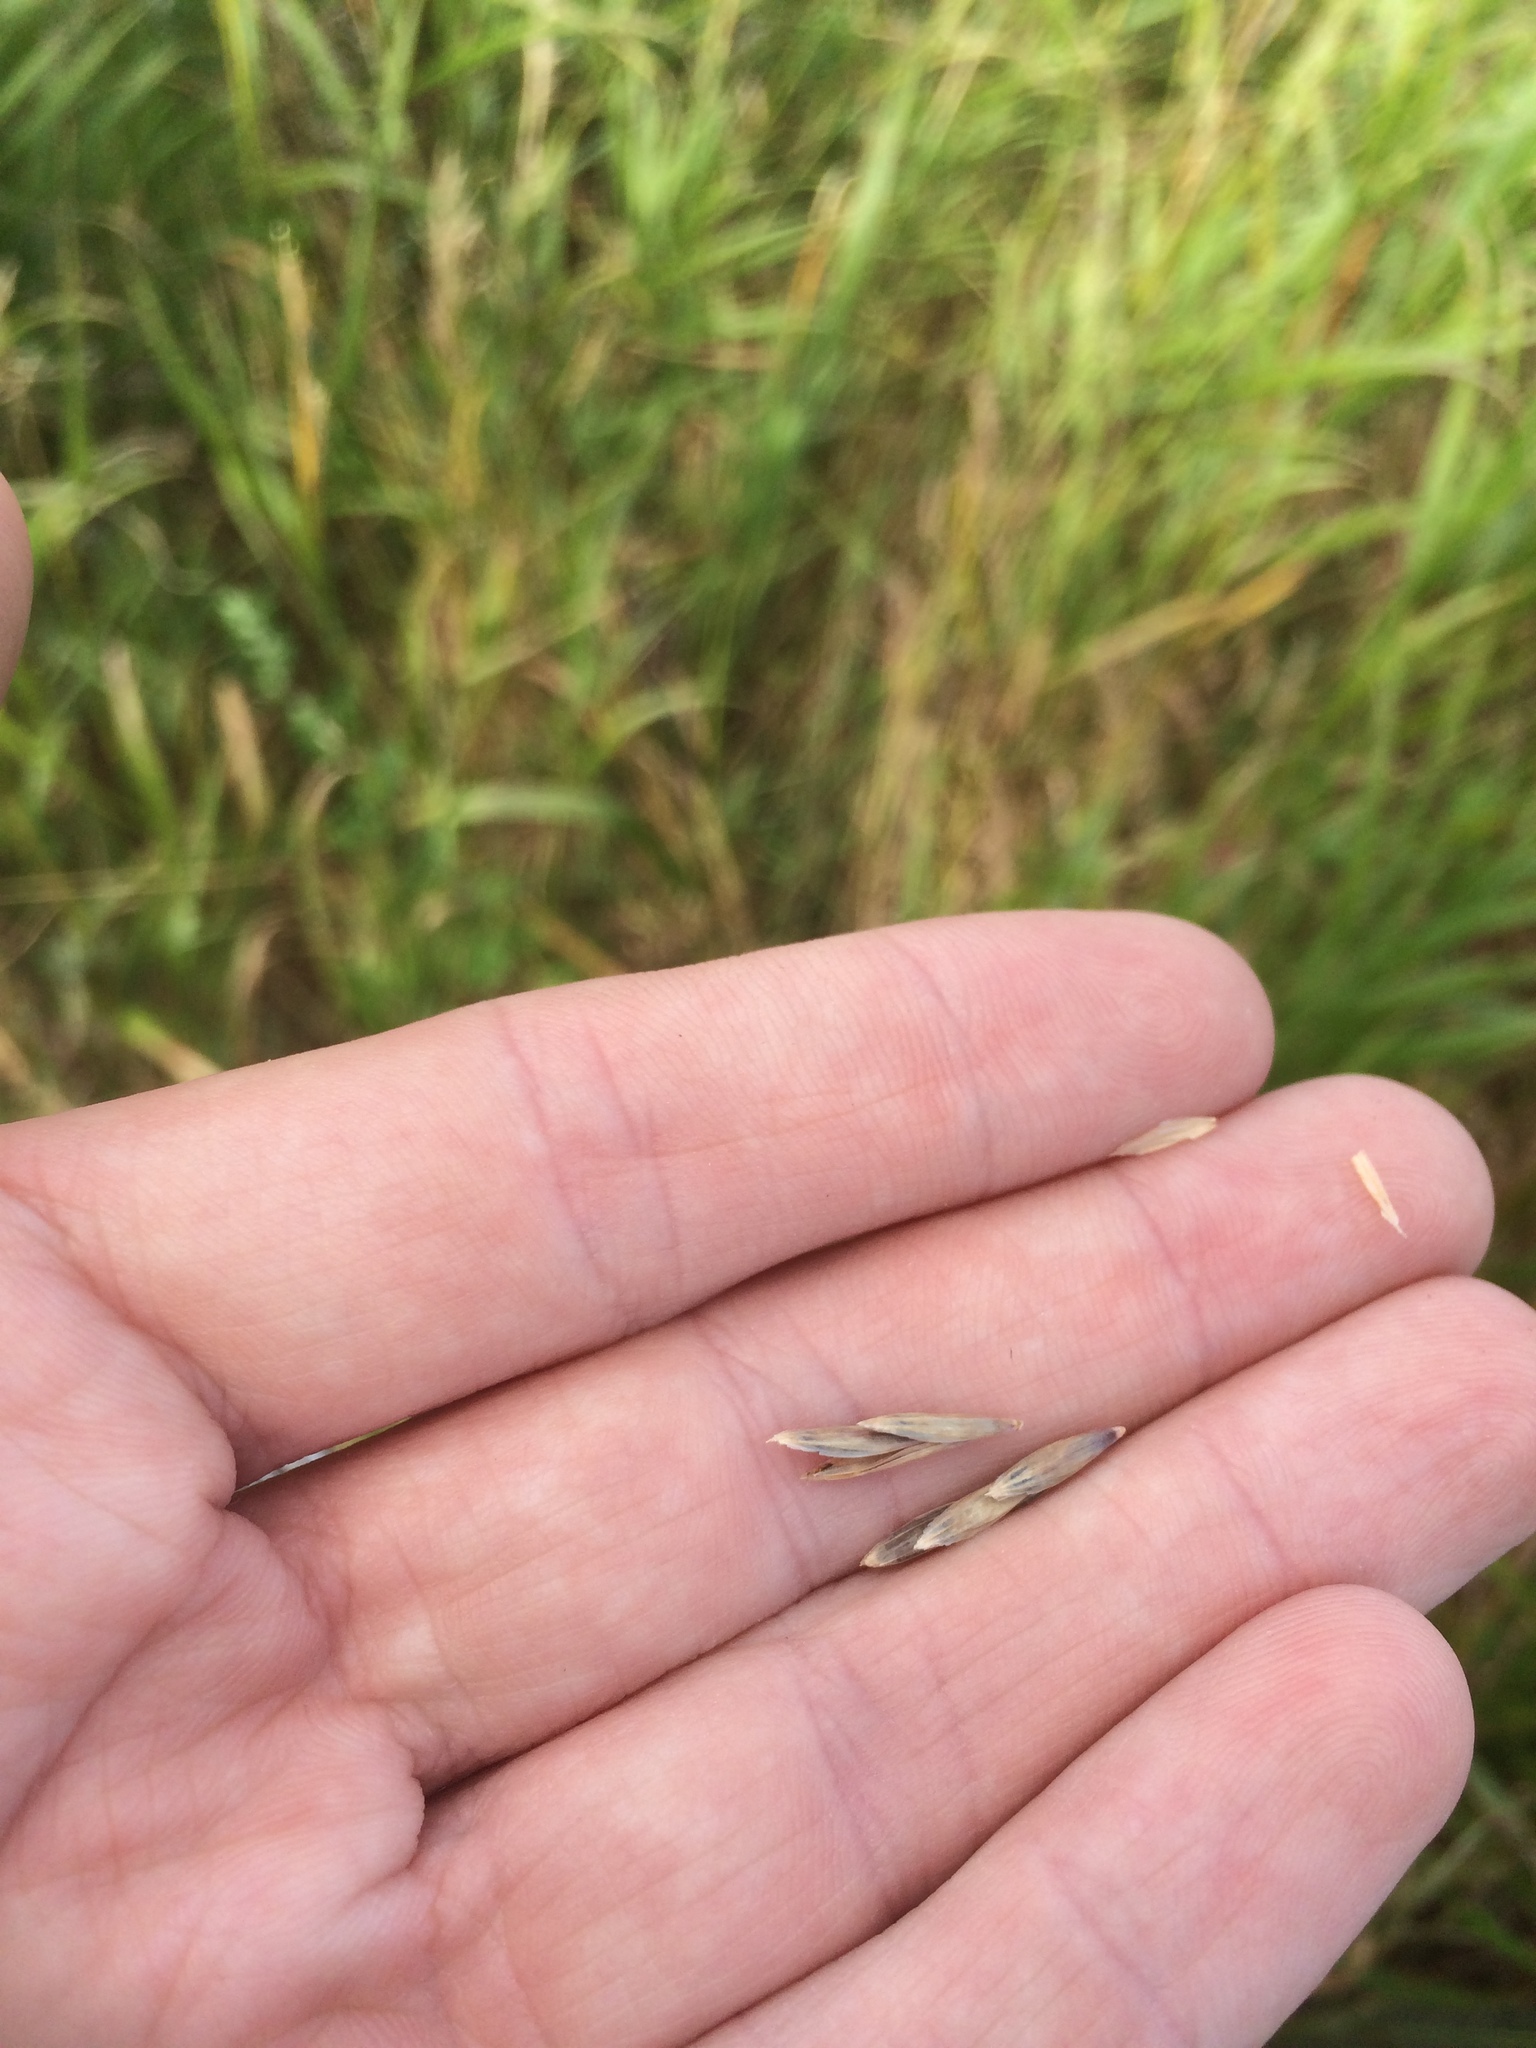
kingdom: Plantae
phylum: Tracheophyta
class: Liliopsida
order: Poales
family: Poaceae
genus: Bromus
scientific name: Bromus inermis
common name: Smooth brome
